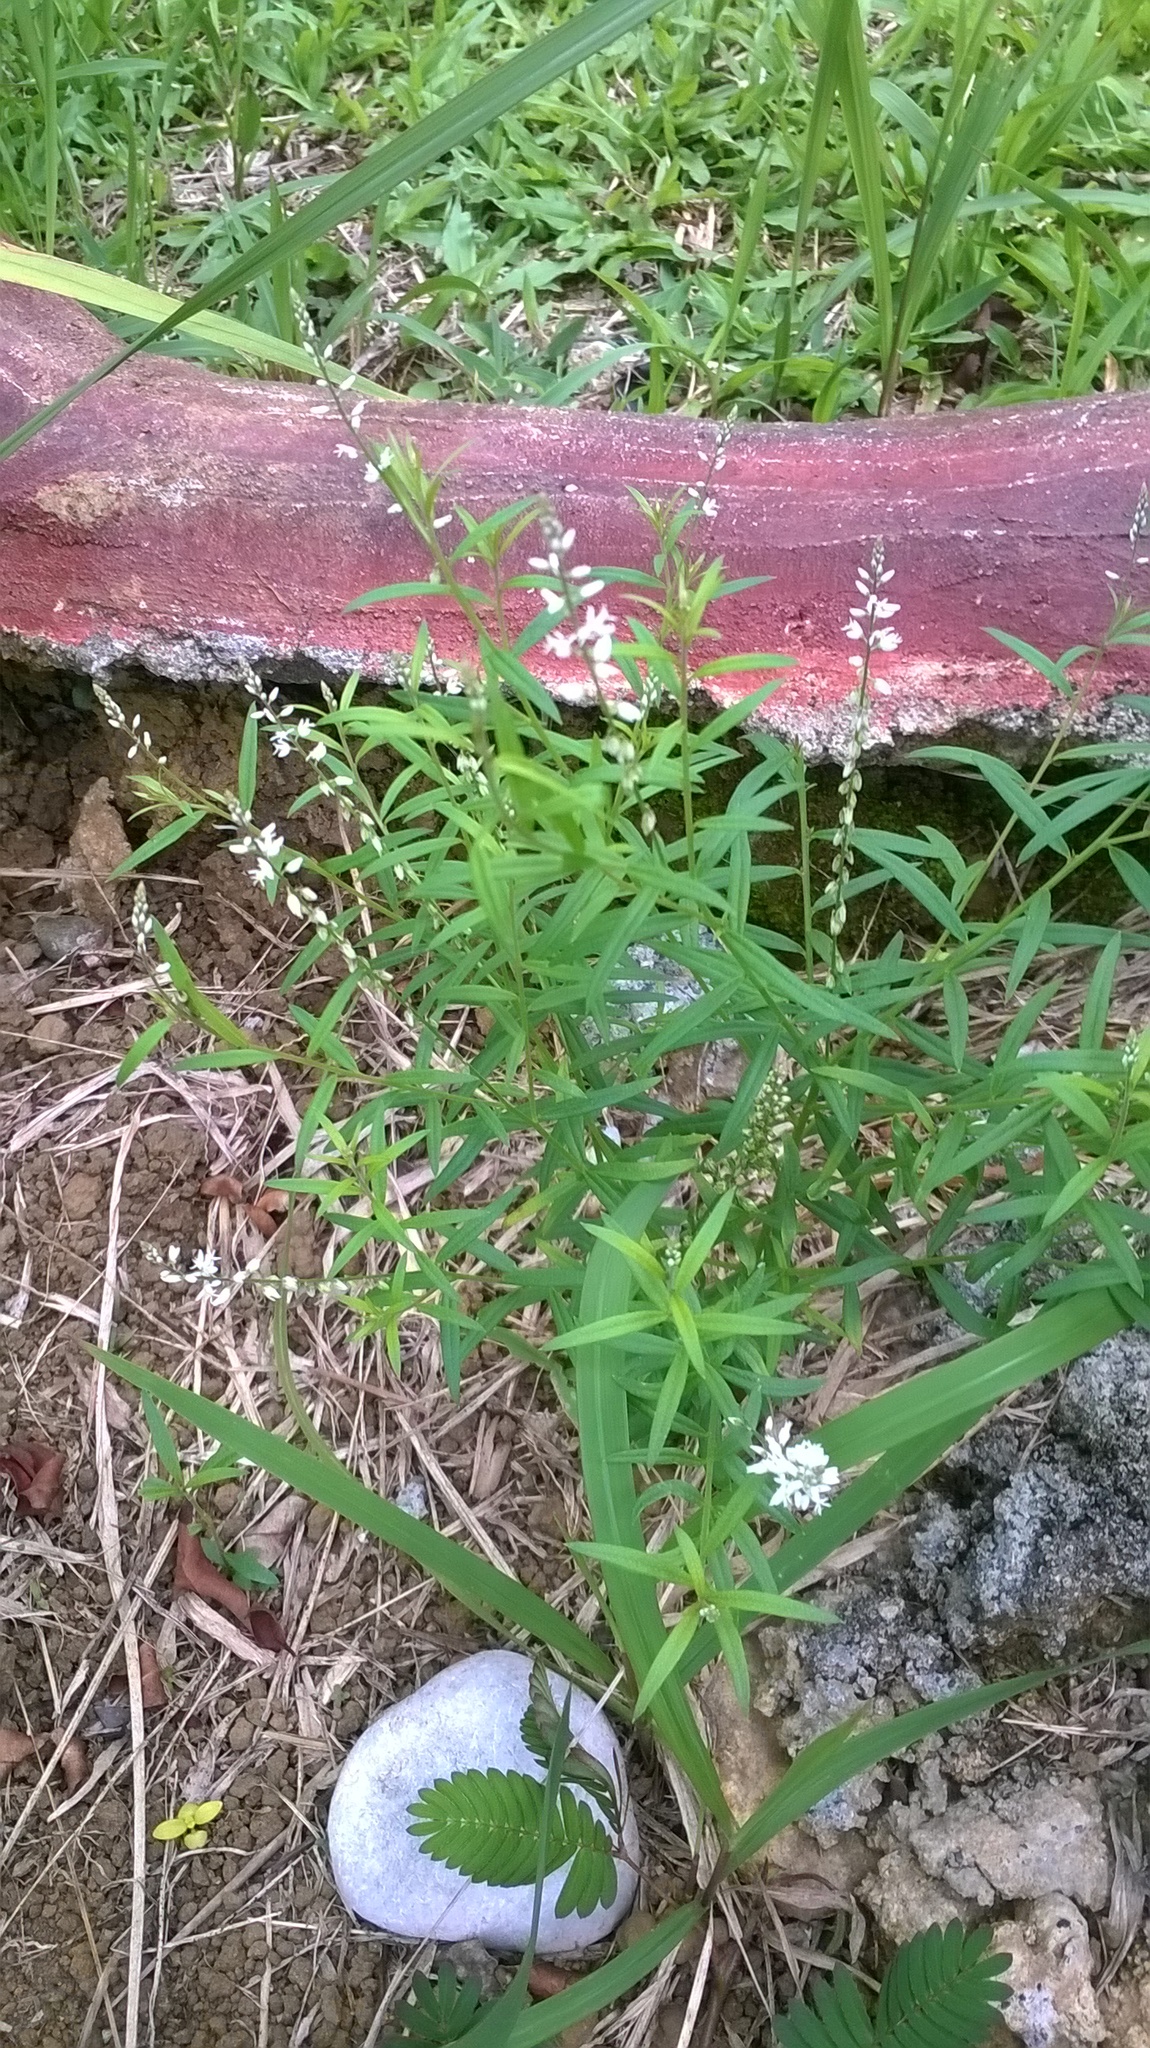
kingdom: Plantae
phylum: Tracheophyta
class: Magnoliopsida
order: Fabales
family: Polygalaceae
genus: Polygala
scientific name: Polygala paniculata
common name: Orosne
